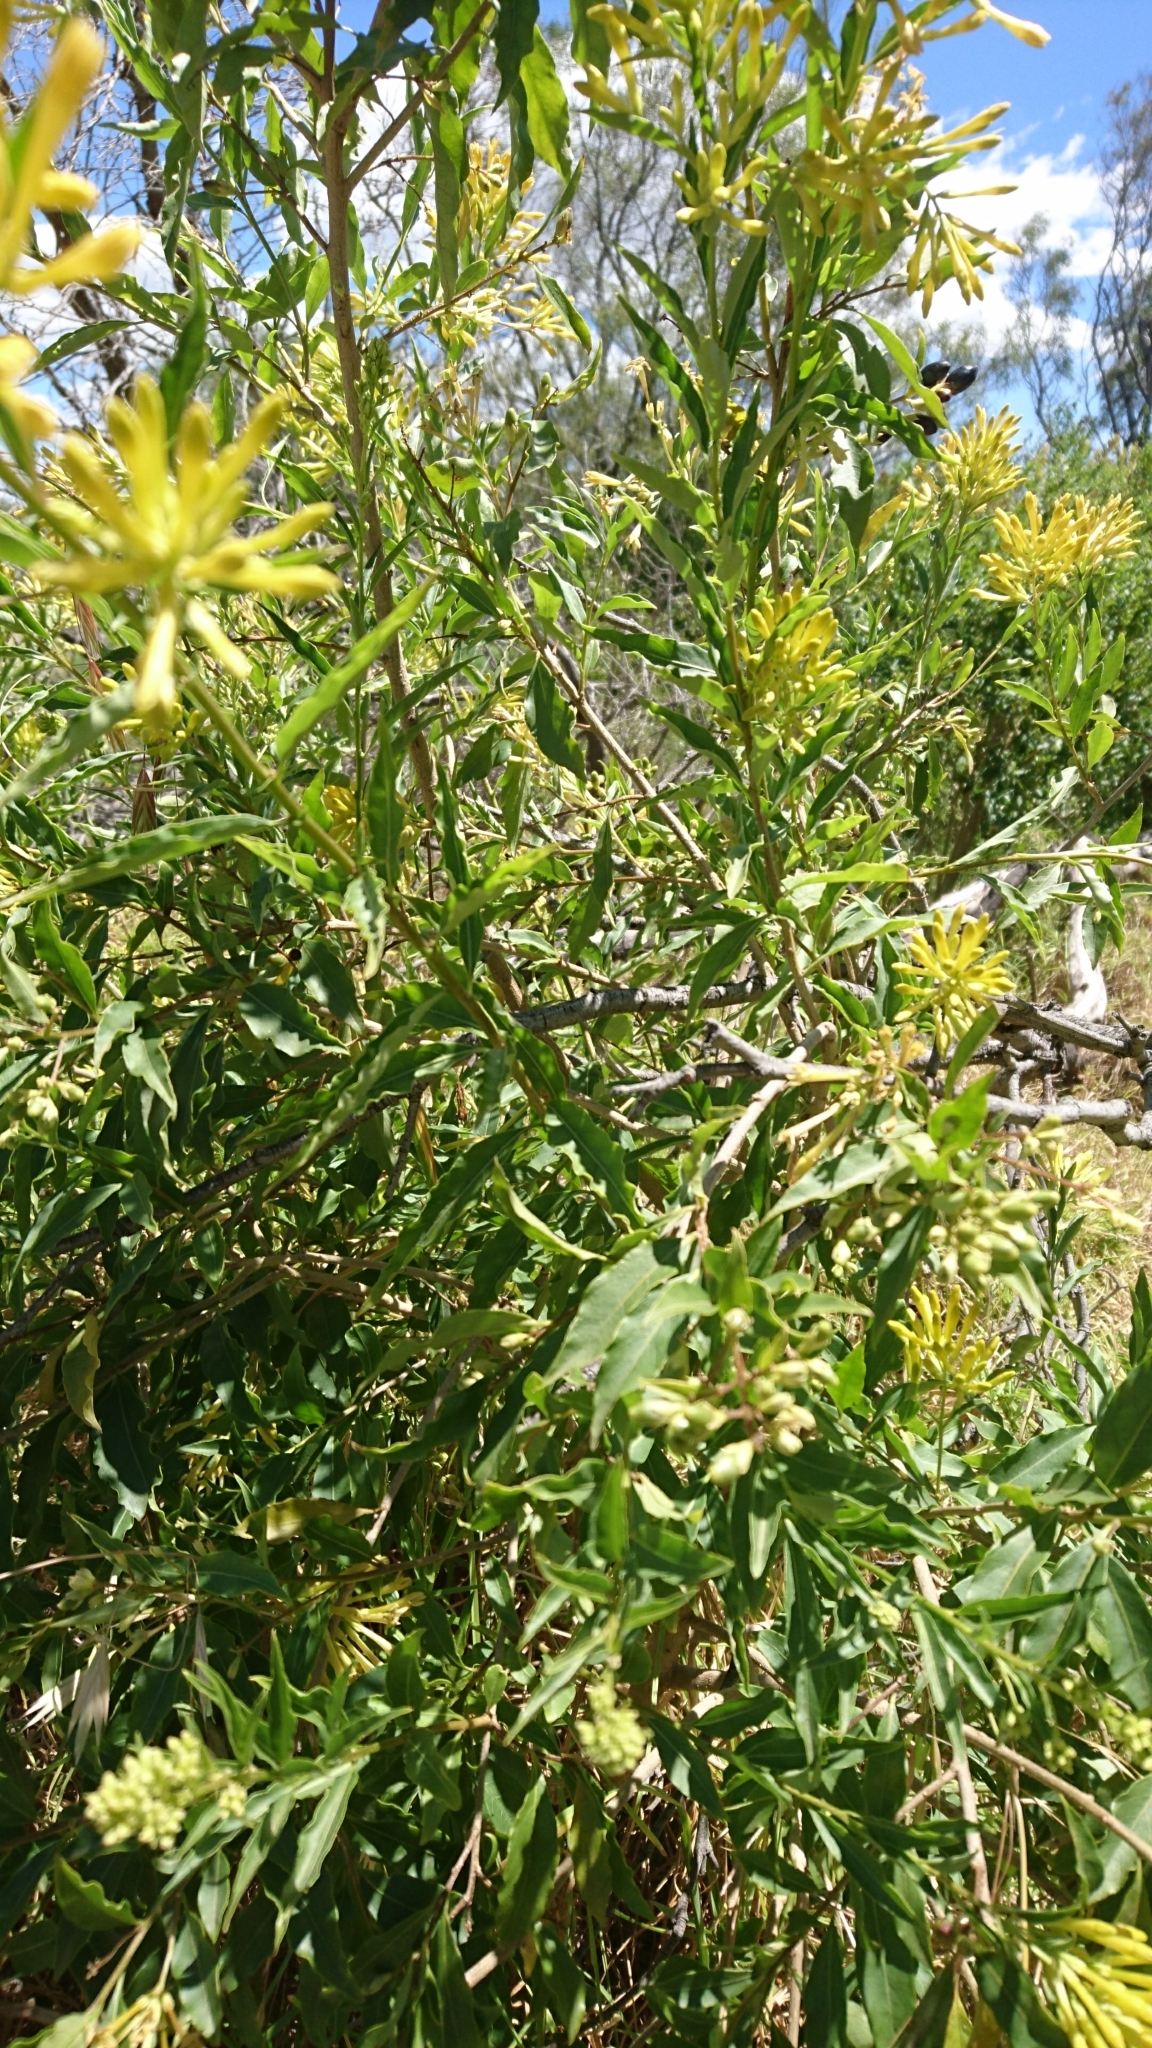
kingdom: Plantae
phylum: Tracheophyta
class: Magnoliopsida
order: Solanales
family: Solanaceae
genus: Cestrum
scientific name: Cestrum parqui
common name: Chilean cestrum
